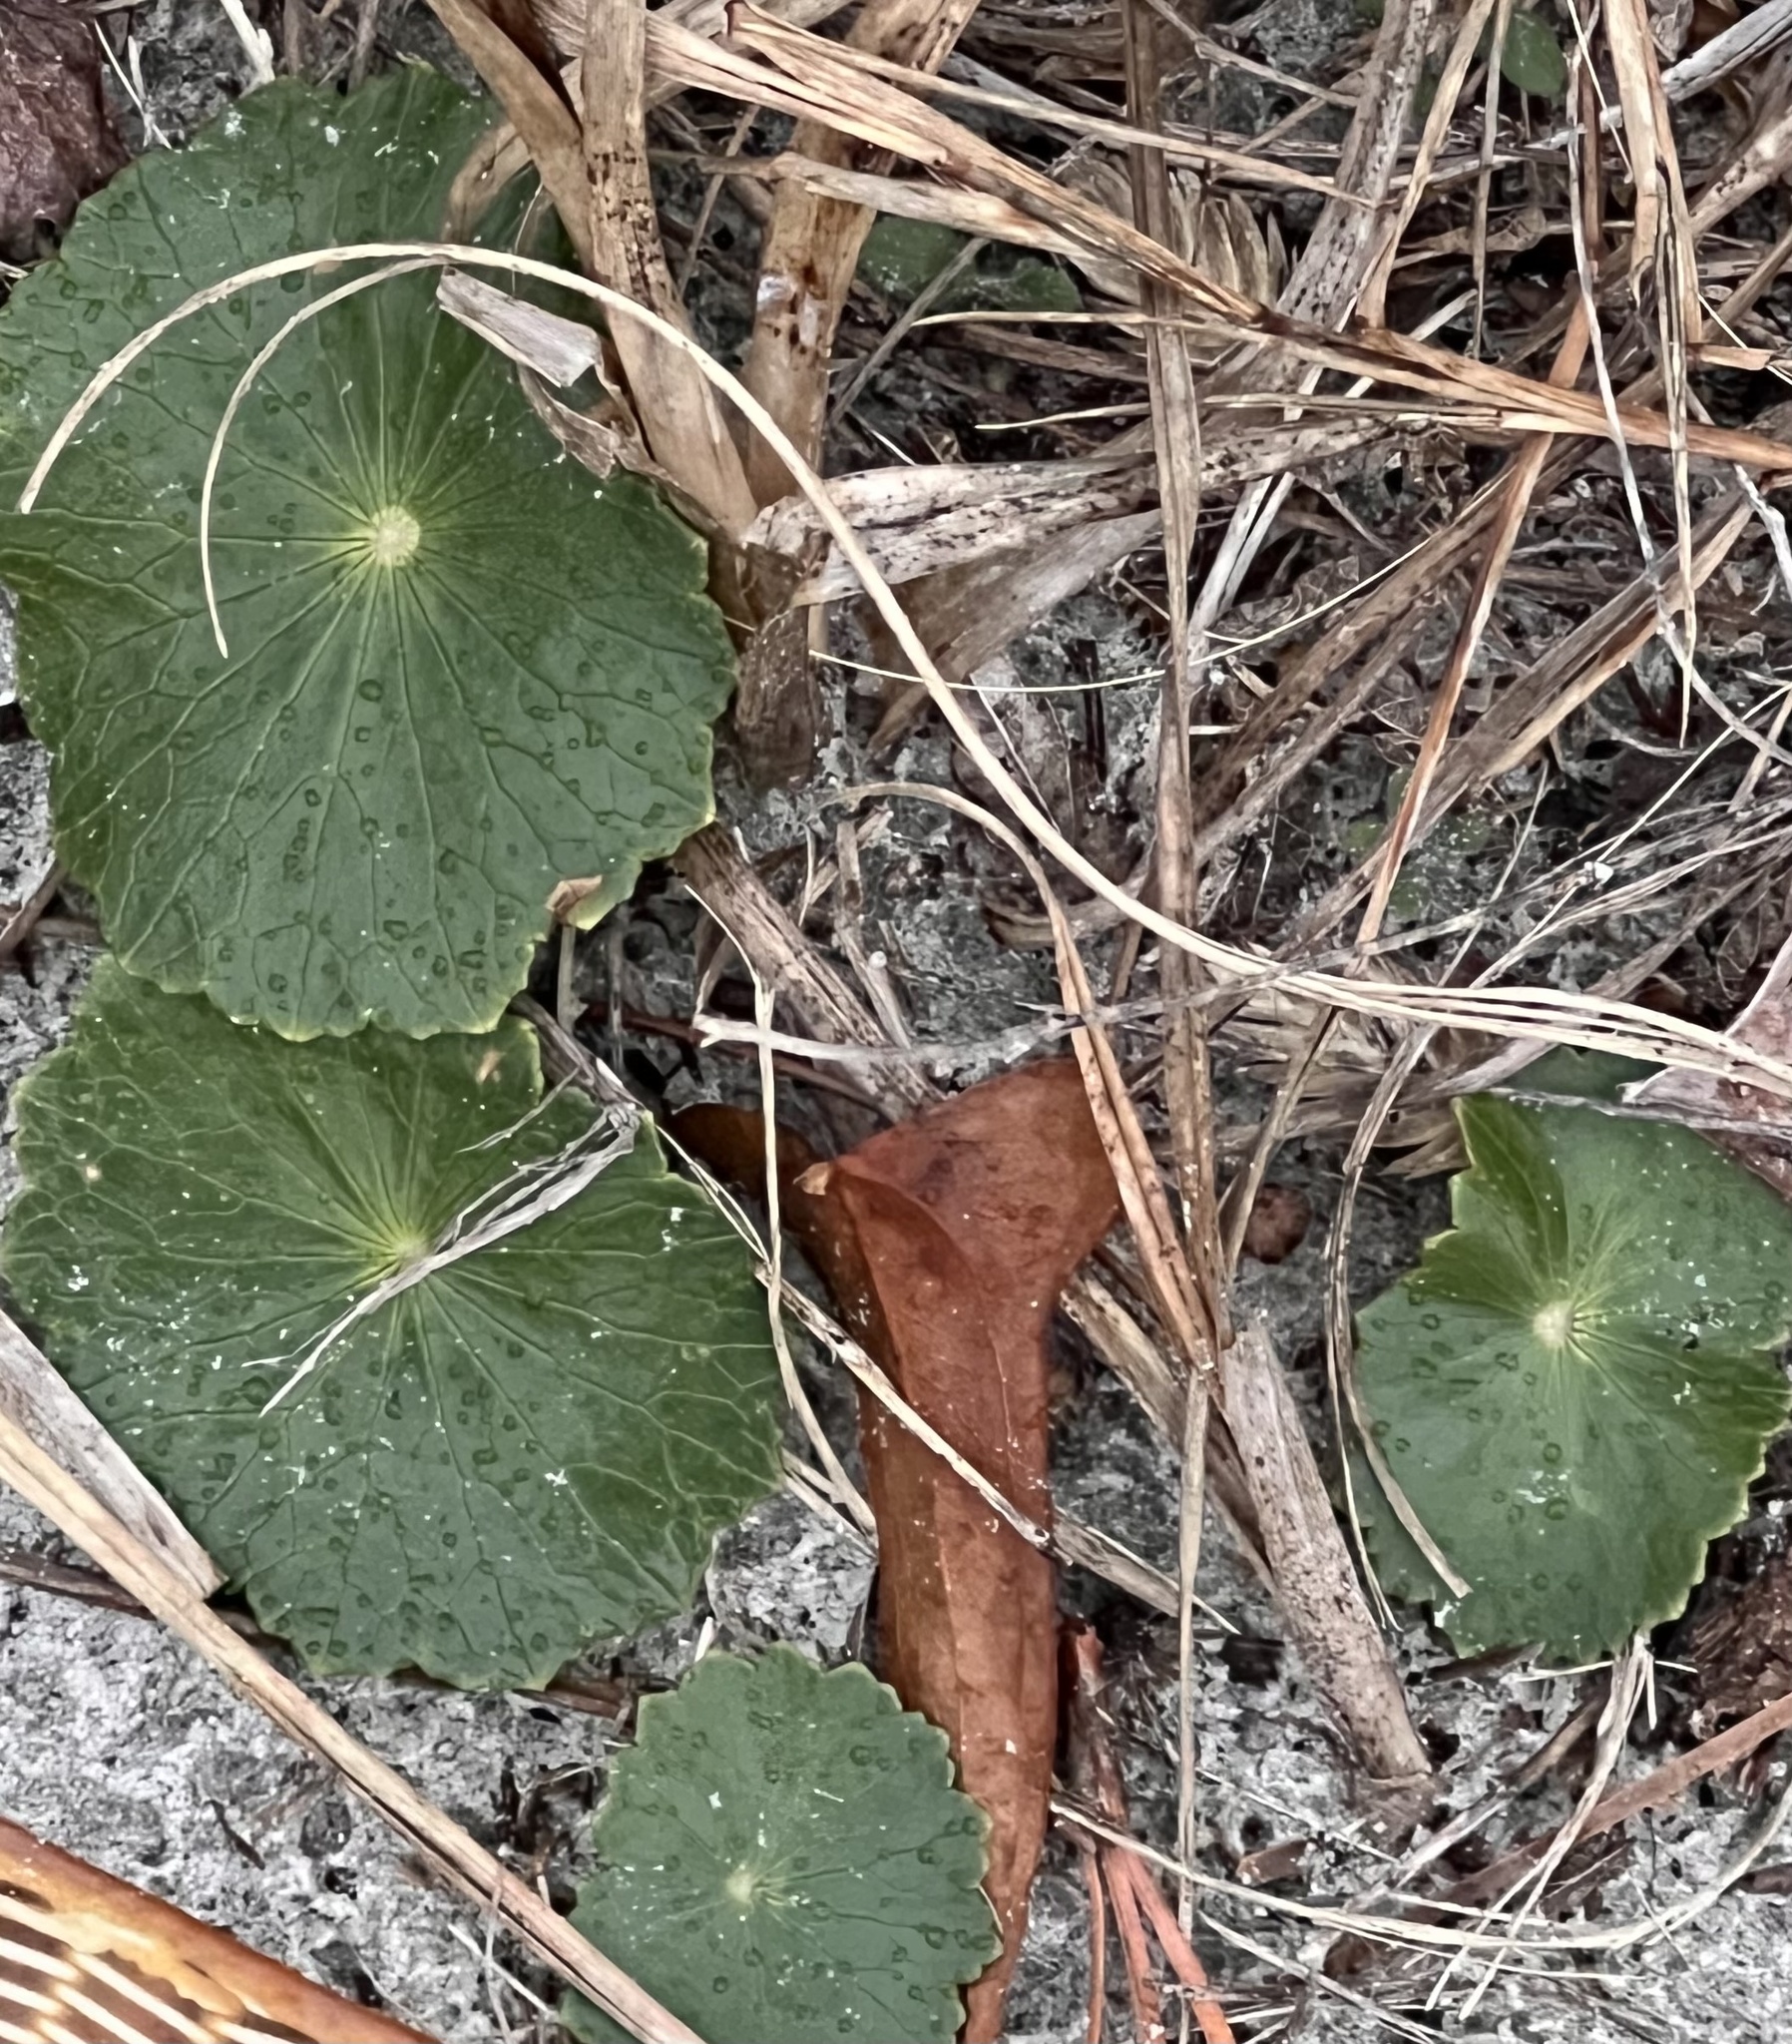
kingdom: Plantae
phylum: Tracheophyta
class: Magnoliopsida
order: Apiales
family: Araliaceae
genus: Hydrocotyle
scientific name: Hydrocotyle bonariensis
